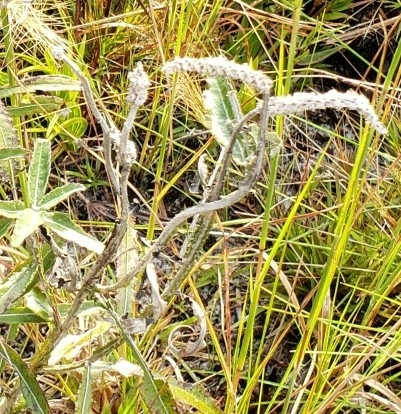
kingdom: Plantae
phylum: Tracheophyta
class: Magnoliopsida
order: Asterales
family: Asteraceae
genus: Pterocaulon
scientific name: Pterocaulon pycnostachyum
